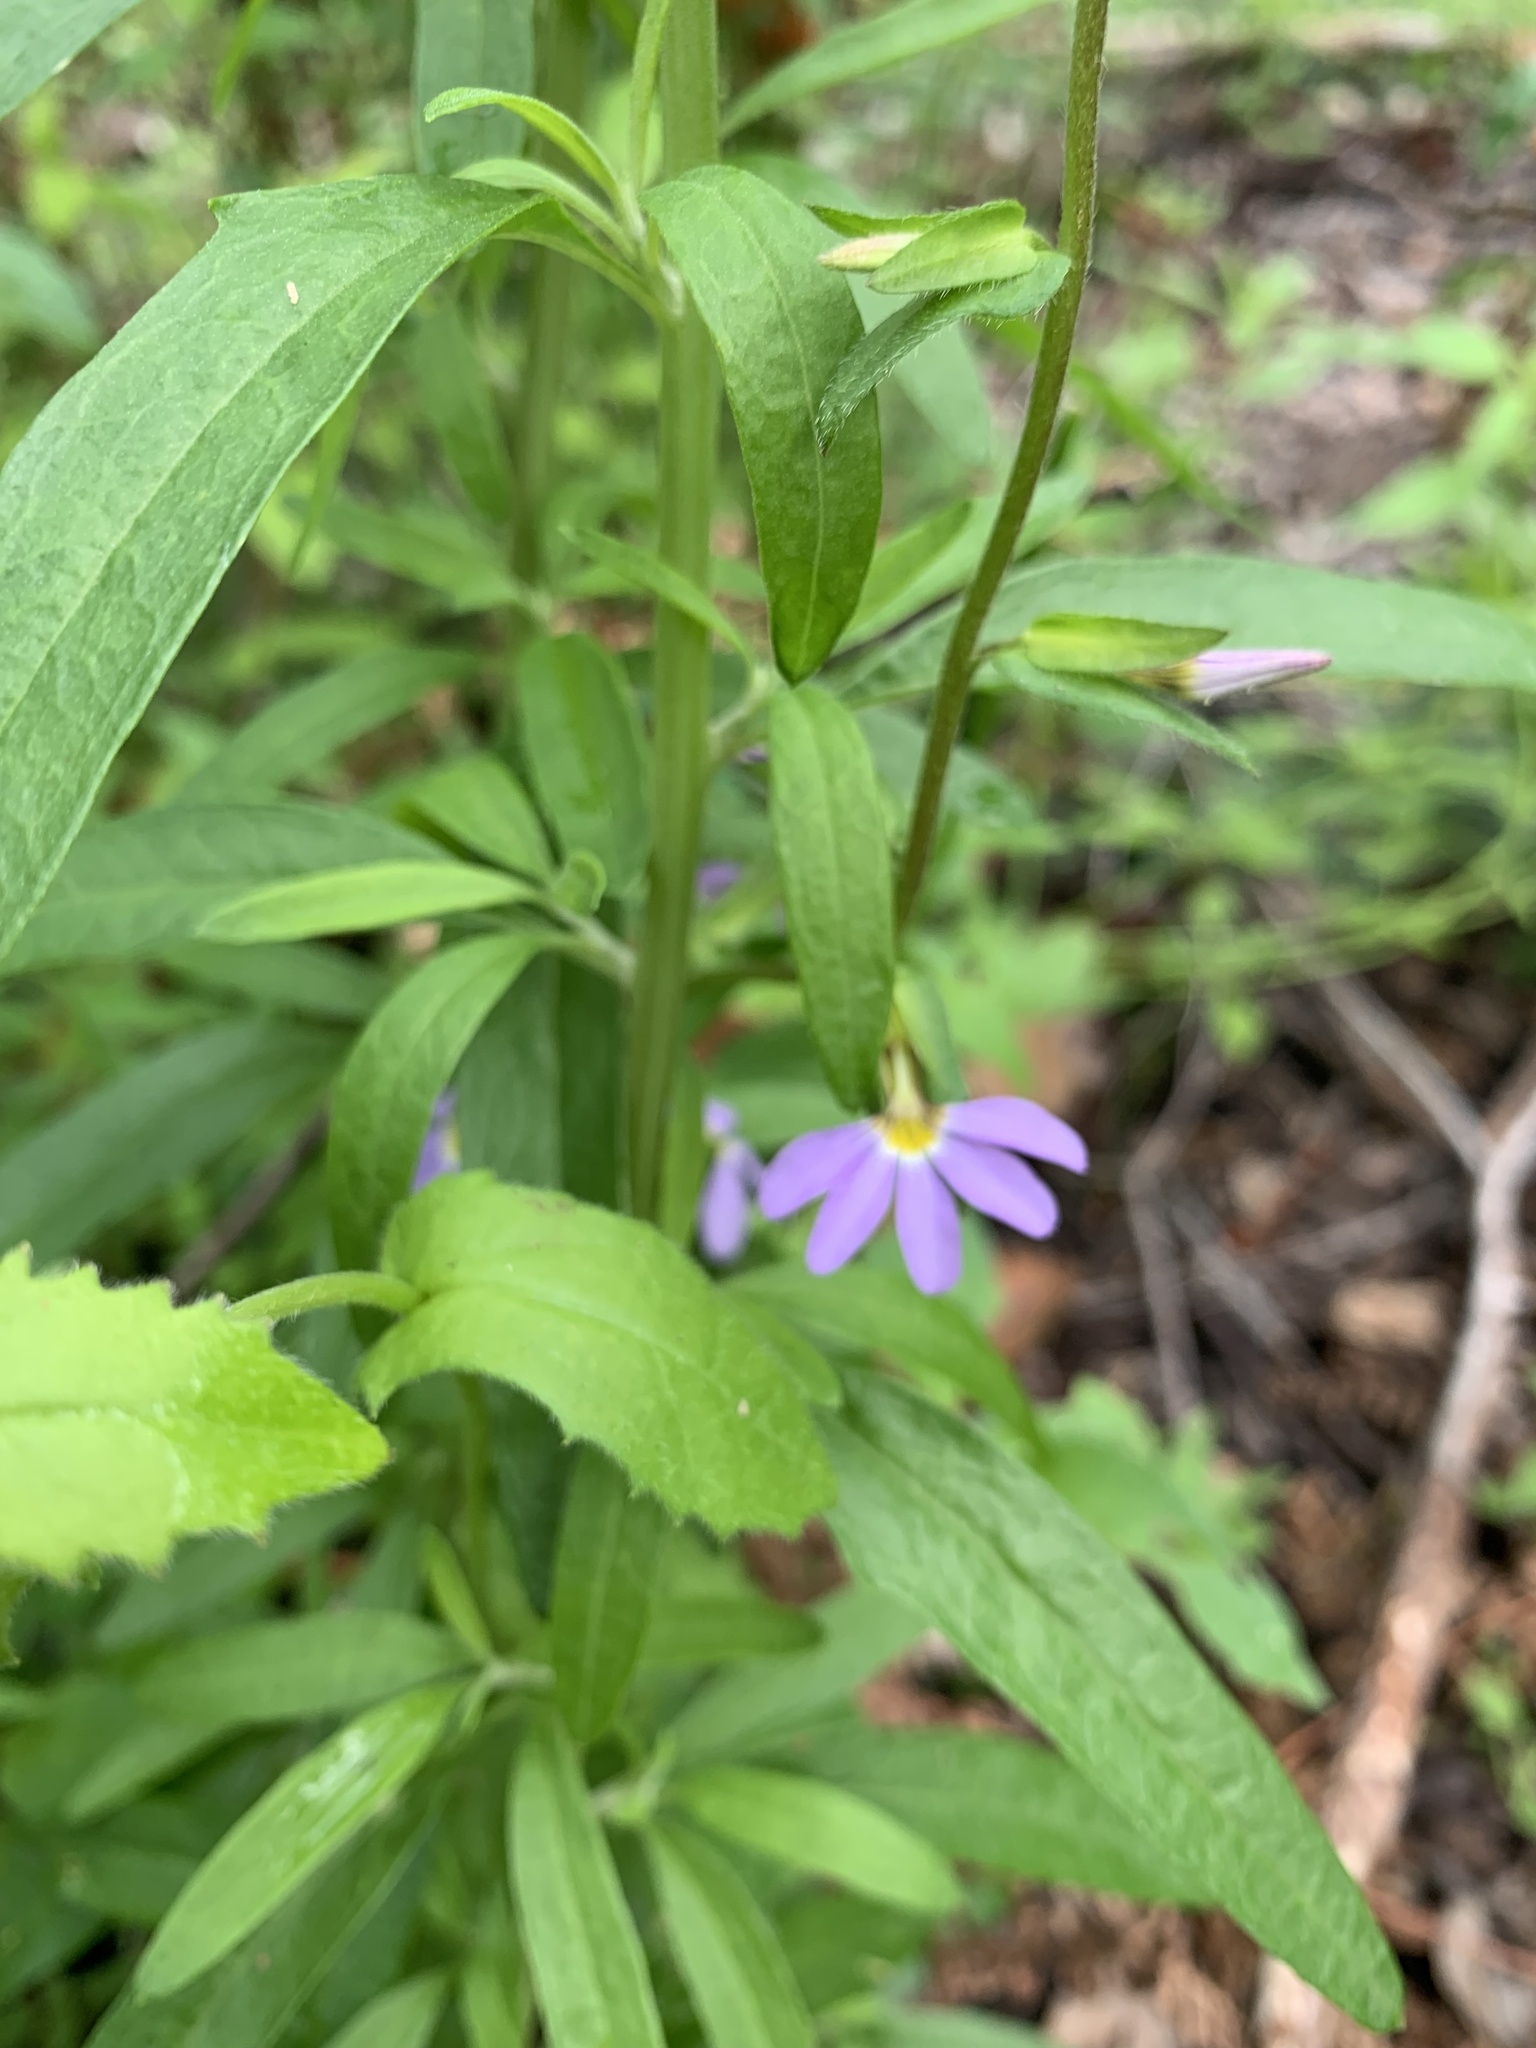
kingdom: Plantae
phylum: Tracheophyta
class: Magnoliopsida
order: Asterales
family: Goodeniaceae
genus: Scaevola
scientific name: Scaevola microphylla
